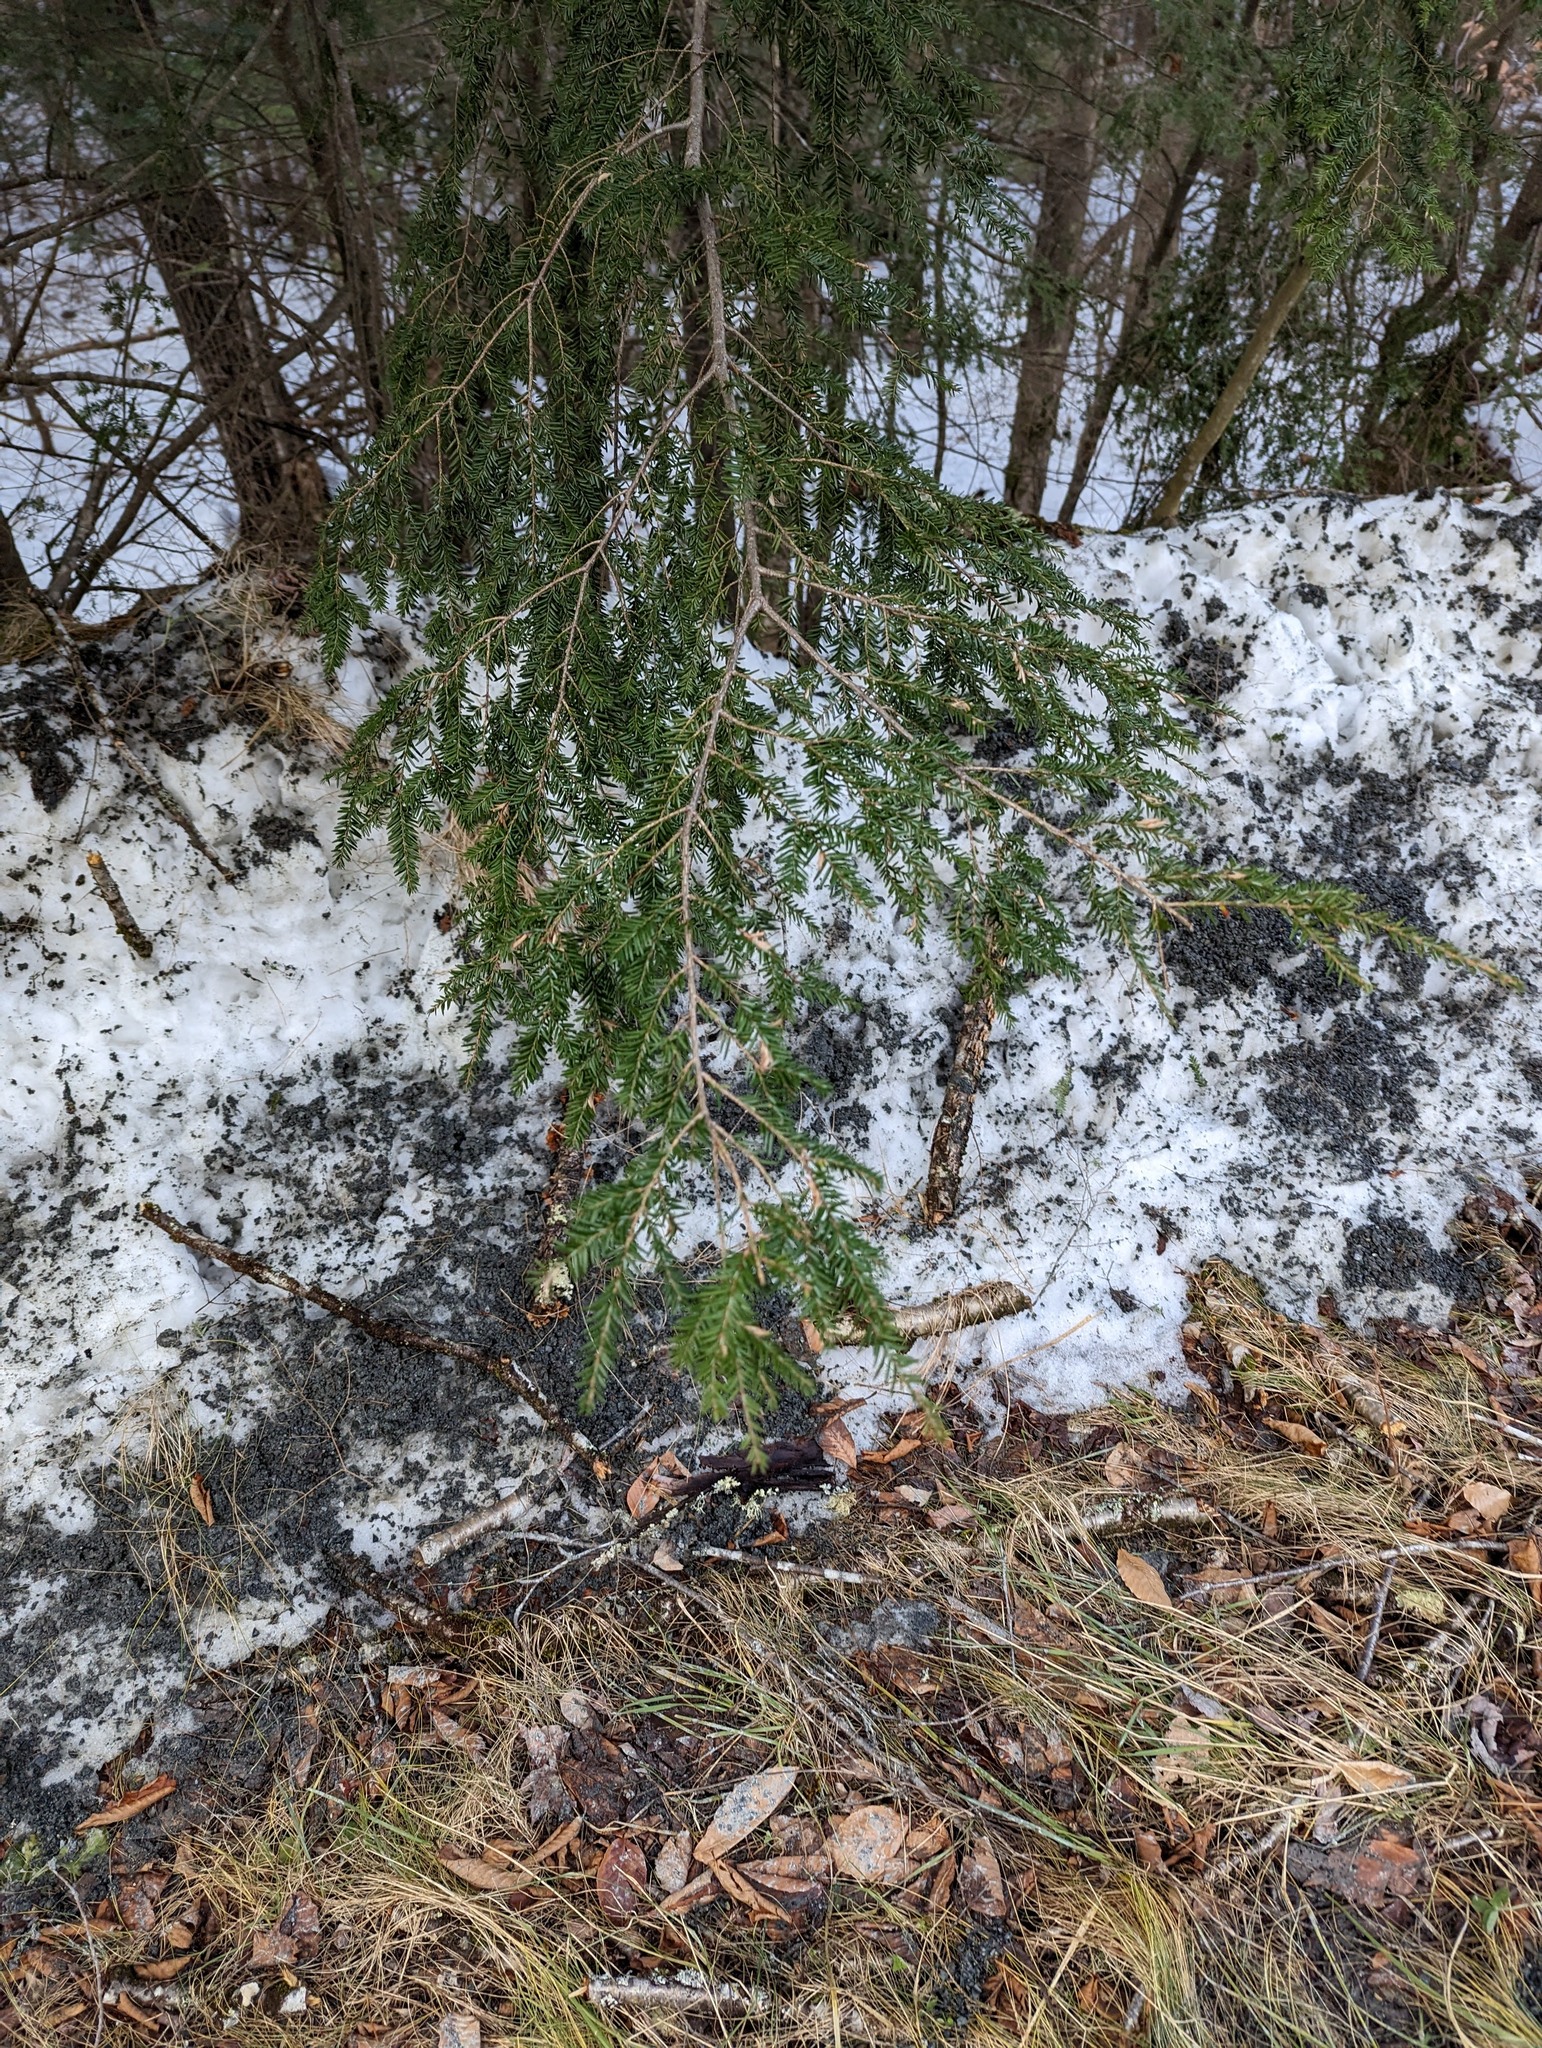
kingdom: Plantae
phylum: Tracheophyta
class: Pinopsida
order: Pinales
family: Pinaceae
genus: Tsuga
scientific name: Tsuga canadensis
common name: Eastern hemlock
